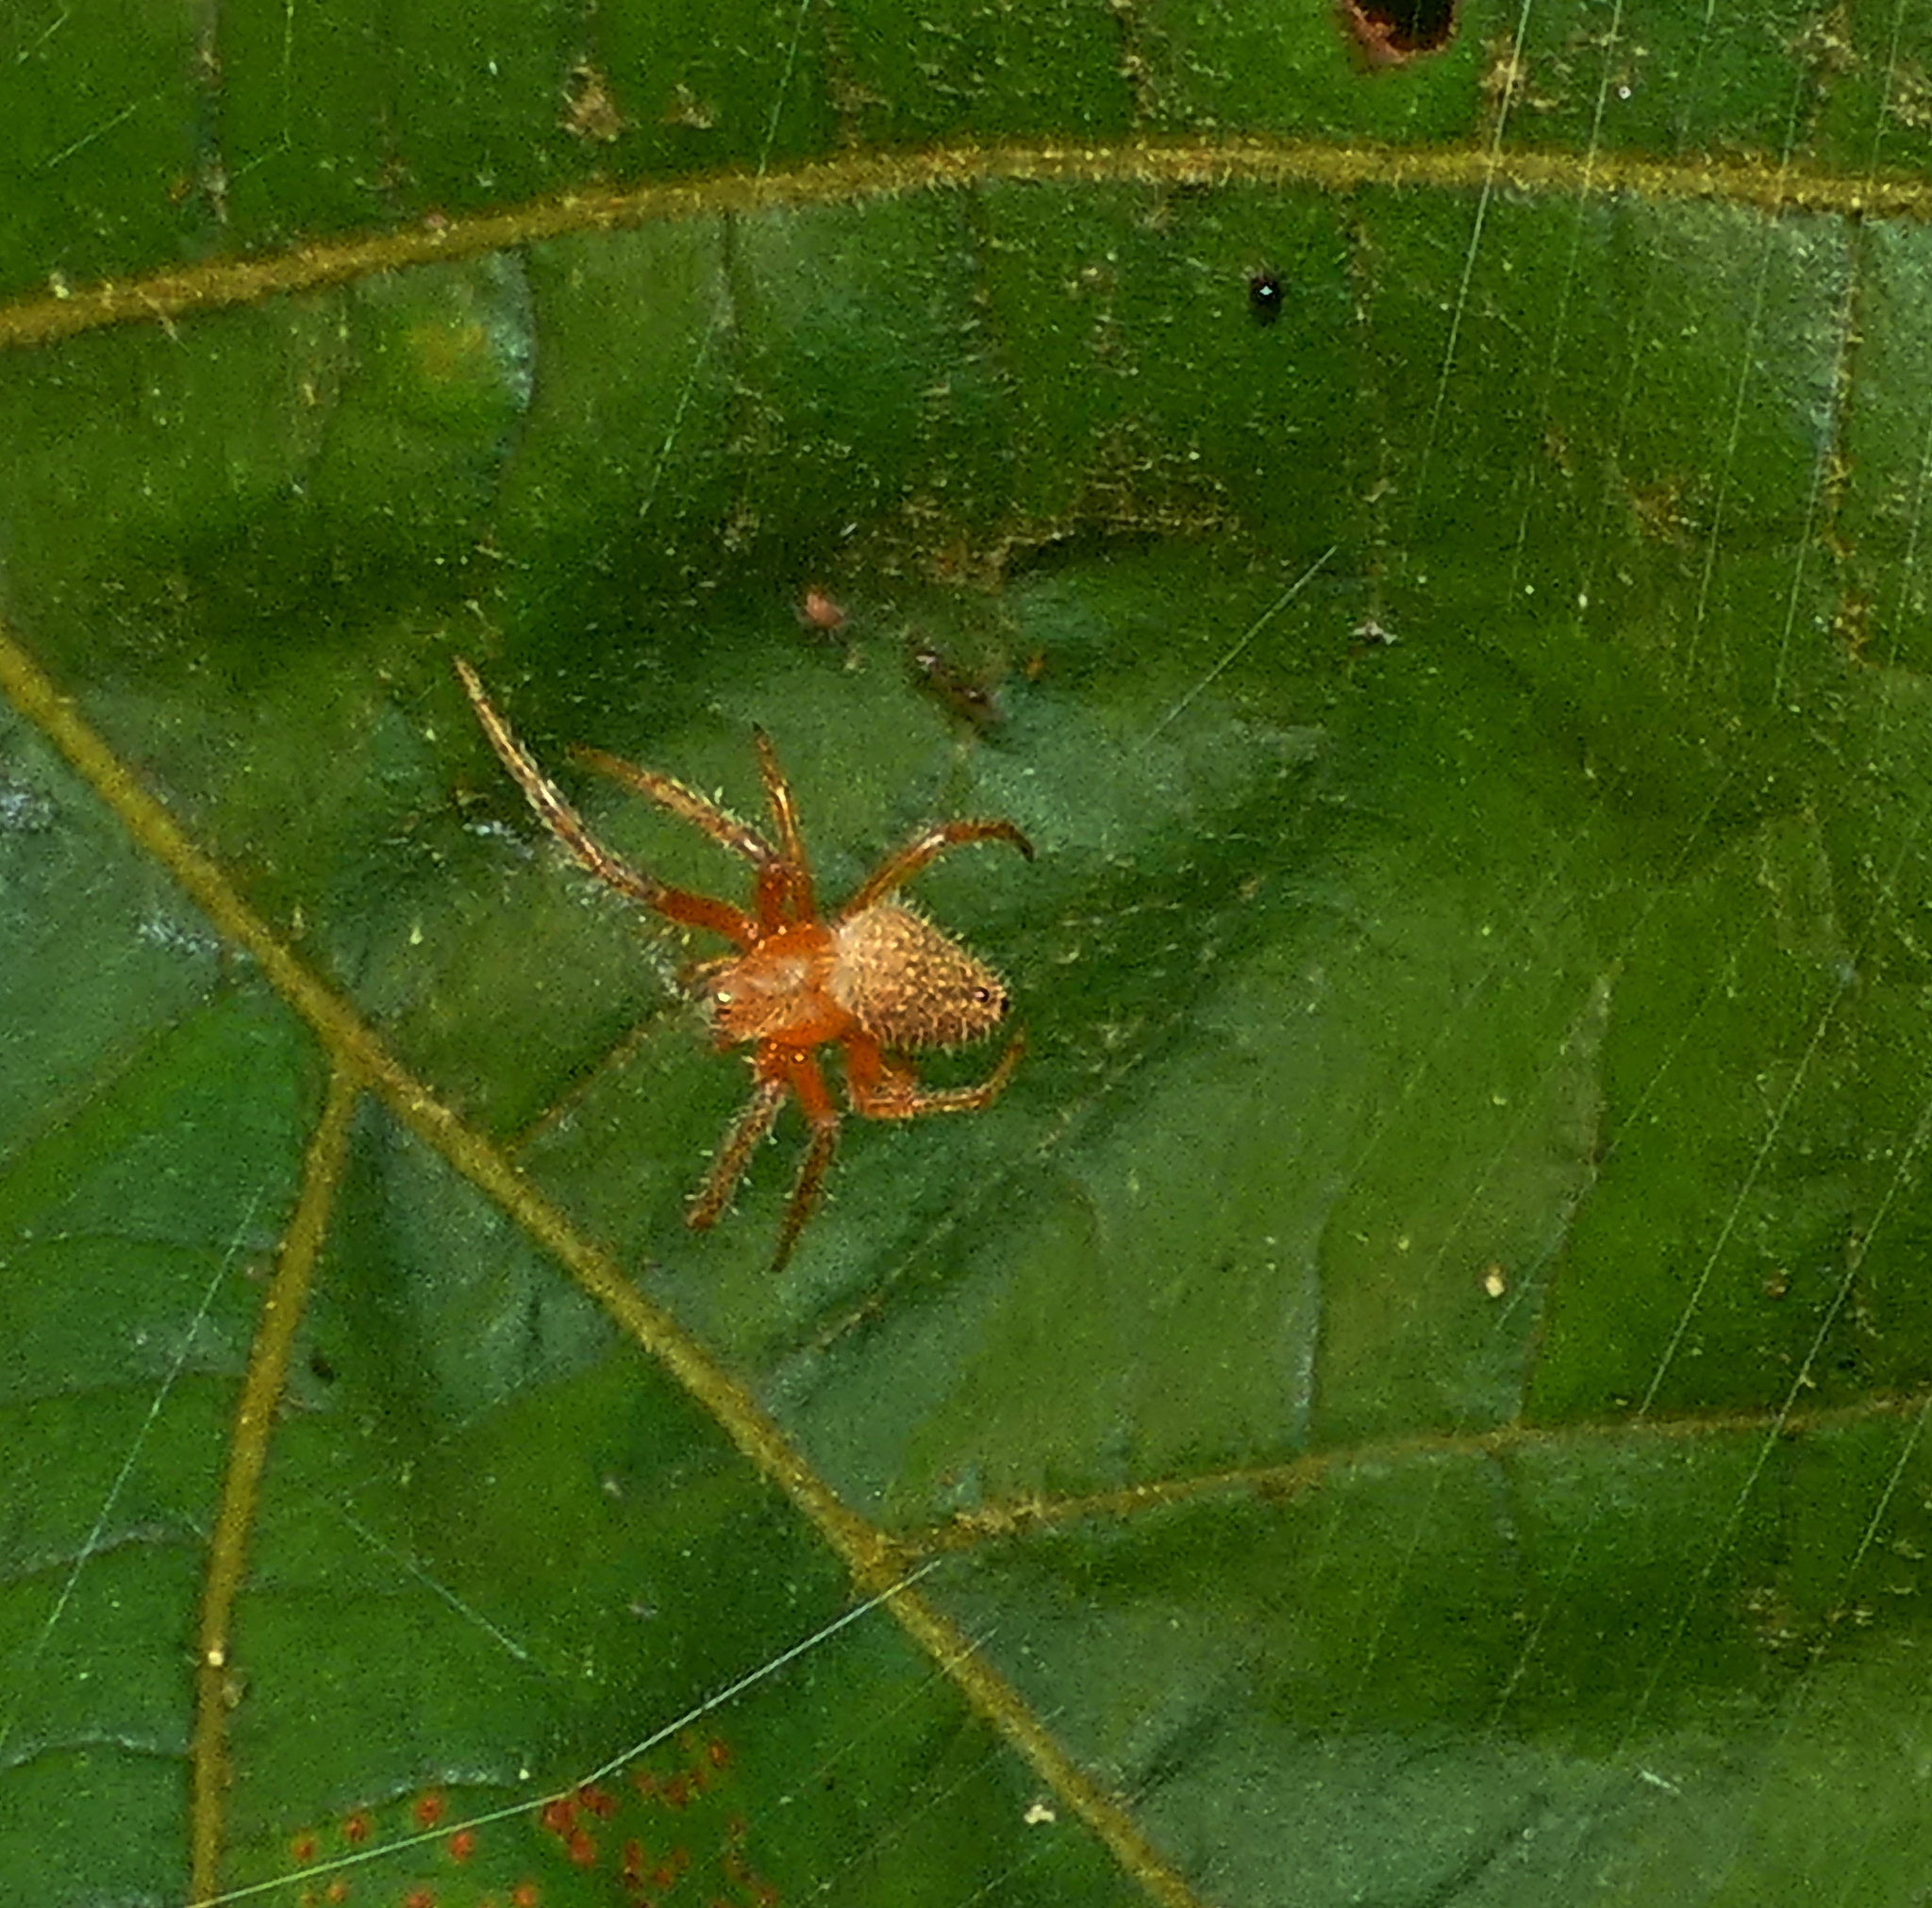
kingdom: Animalia
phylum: Arthropoda
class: Arachnida
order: Araneae
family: Araneidae
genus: Eriophora
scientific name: Eriophora edax
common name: Orb weavers
